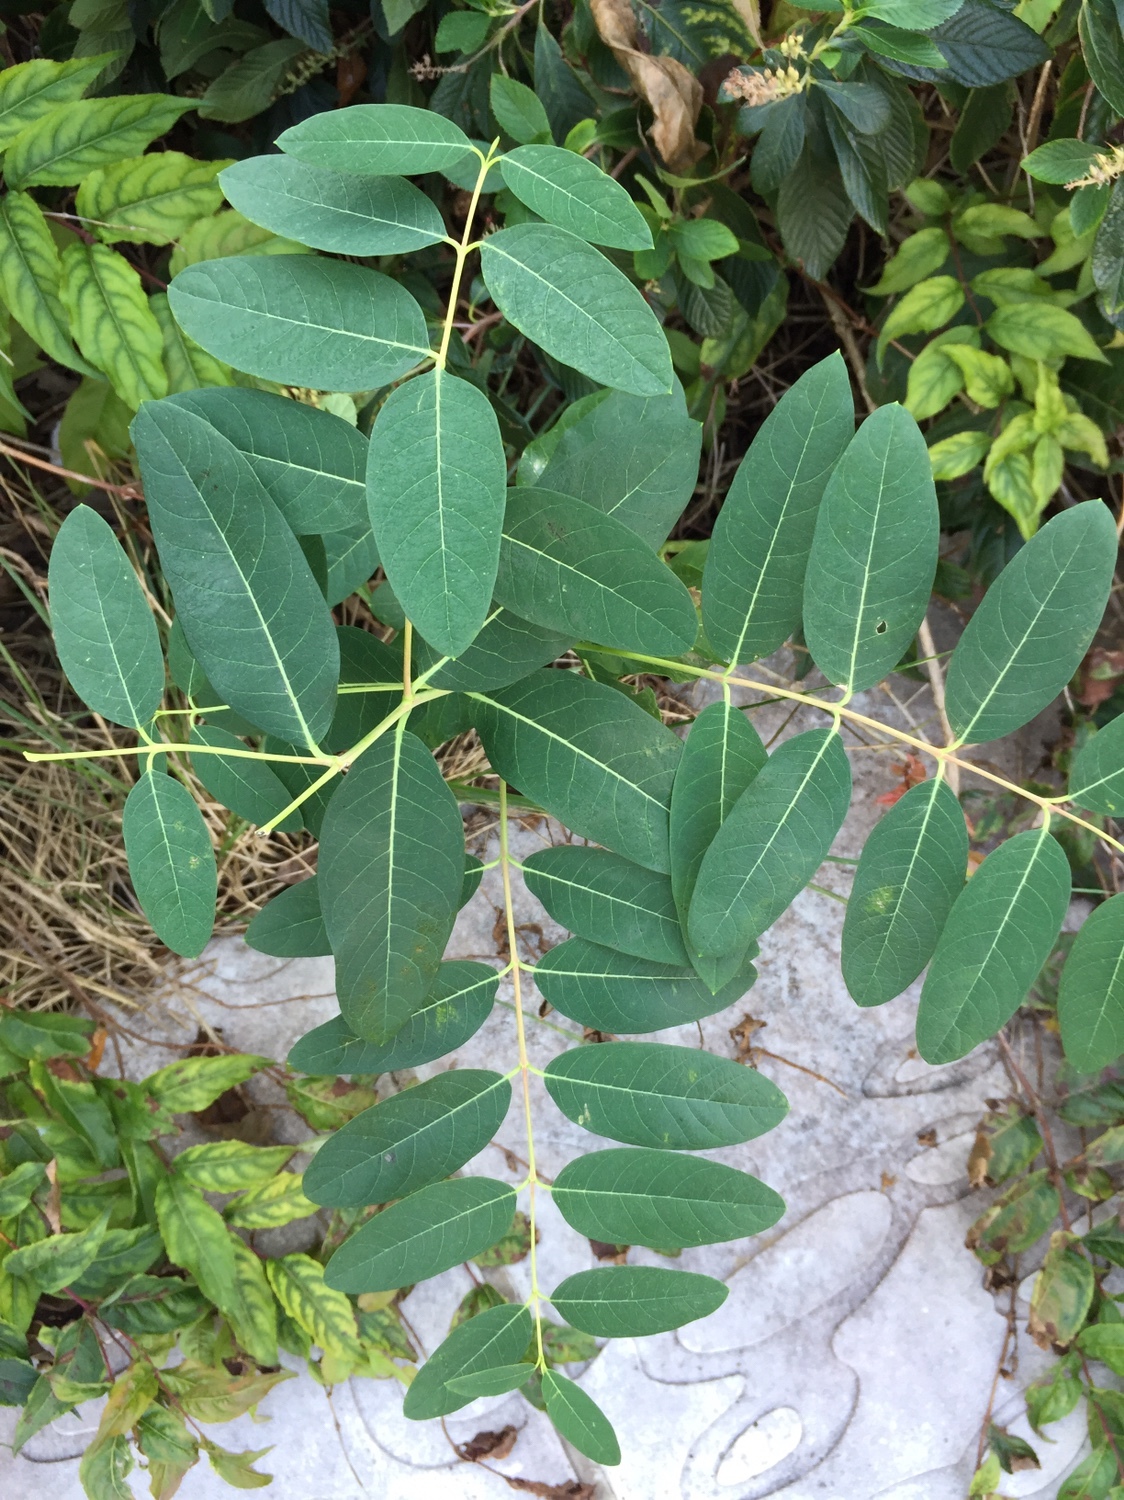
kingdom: Plantae
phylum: Tracheophyta
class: Magnoliopsida
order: Gentianales
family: Apocynaceae
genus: Apocynum
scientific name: Apocynum cannabinum
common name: Hemp dogbane
